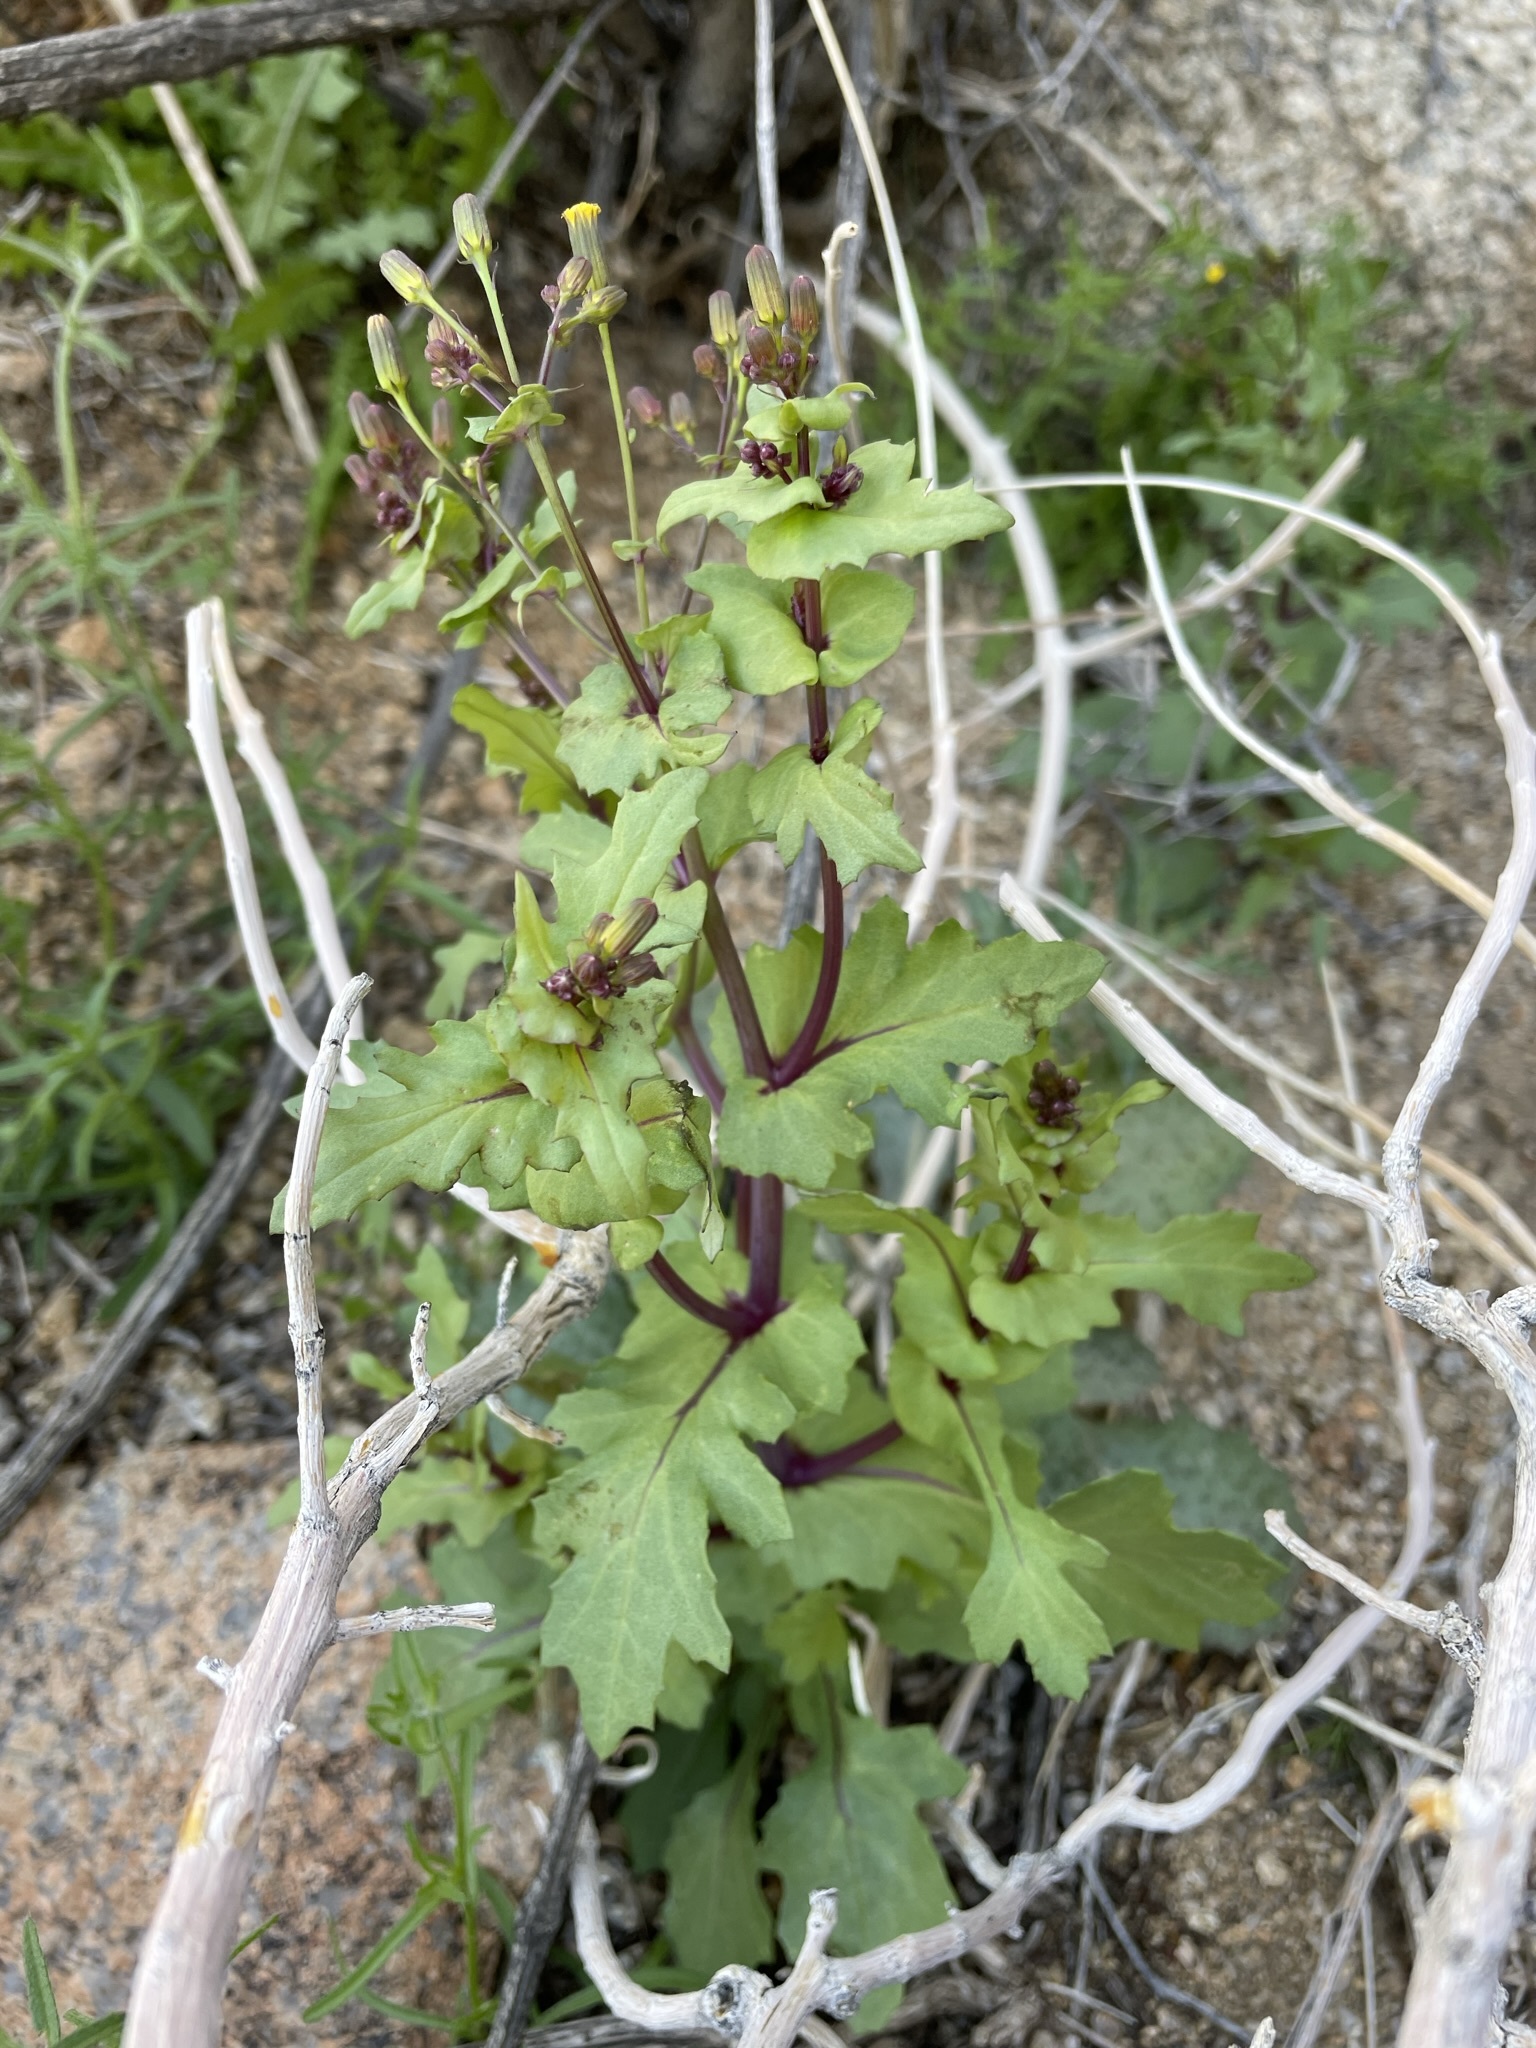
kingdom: Plantae
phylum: Tracheophyta
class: Magnoliopsida
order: Asterales
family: Asteraceae
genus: Senecio
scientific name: Senecio mohavensis
